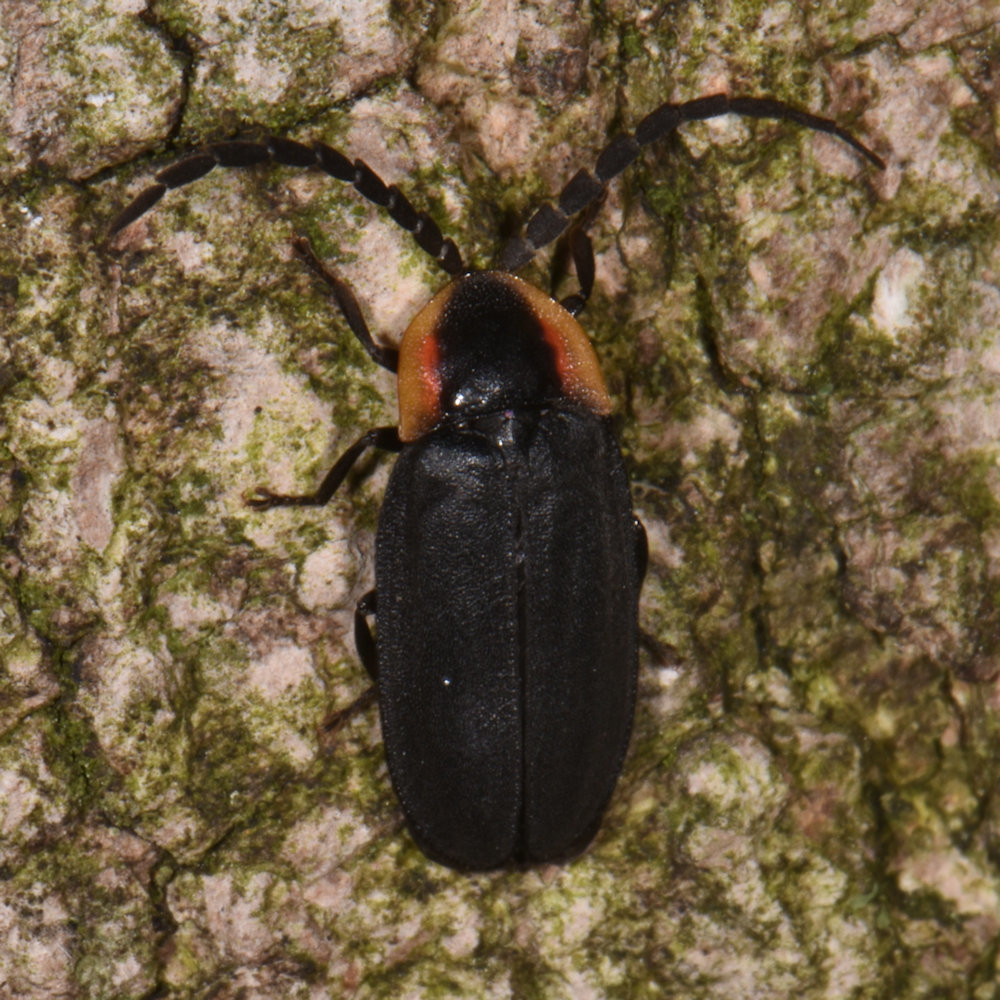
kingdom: Animalia
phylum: Arthropoda
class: Insecta
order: Coleoptera
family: Lampyridae
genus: Lucidota
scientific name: Lucidota atra
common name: Black firefly
